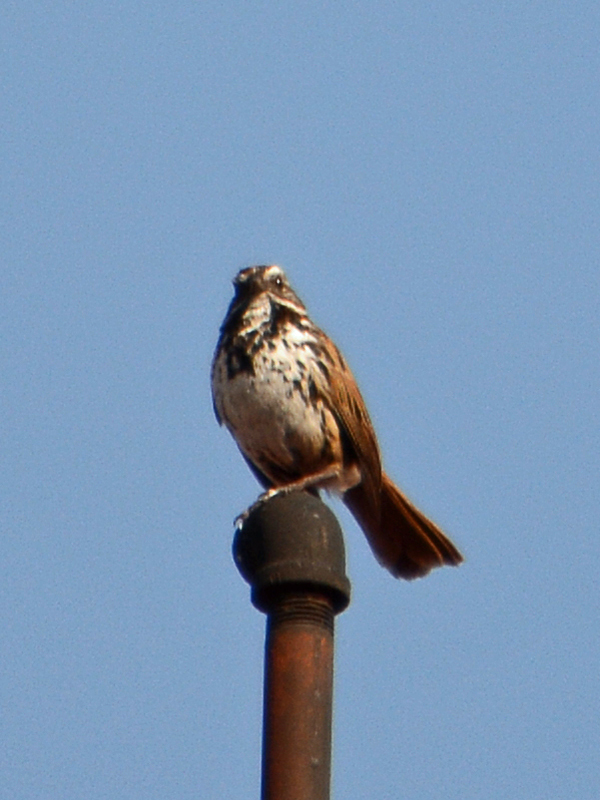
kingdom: Animalia
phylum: Chordata
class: Aves
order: Passeriformes
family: Passerellidae
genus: Melospiza
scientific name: Melospiza melodia
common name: Song sparrow
